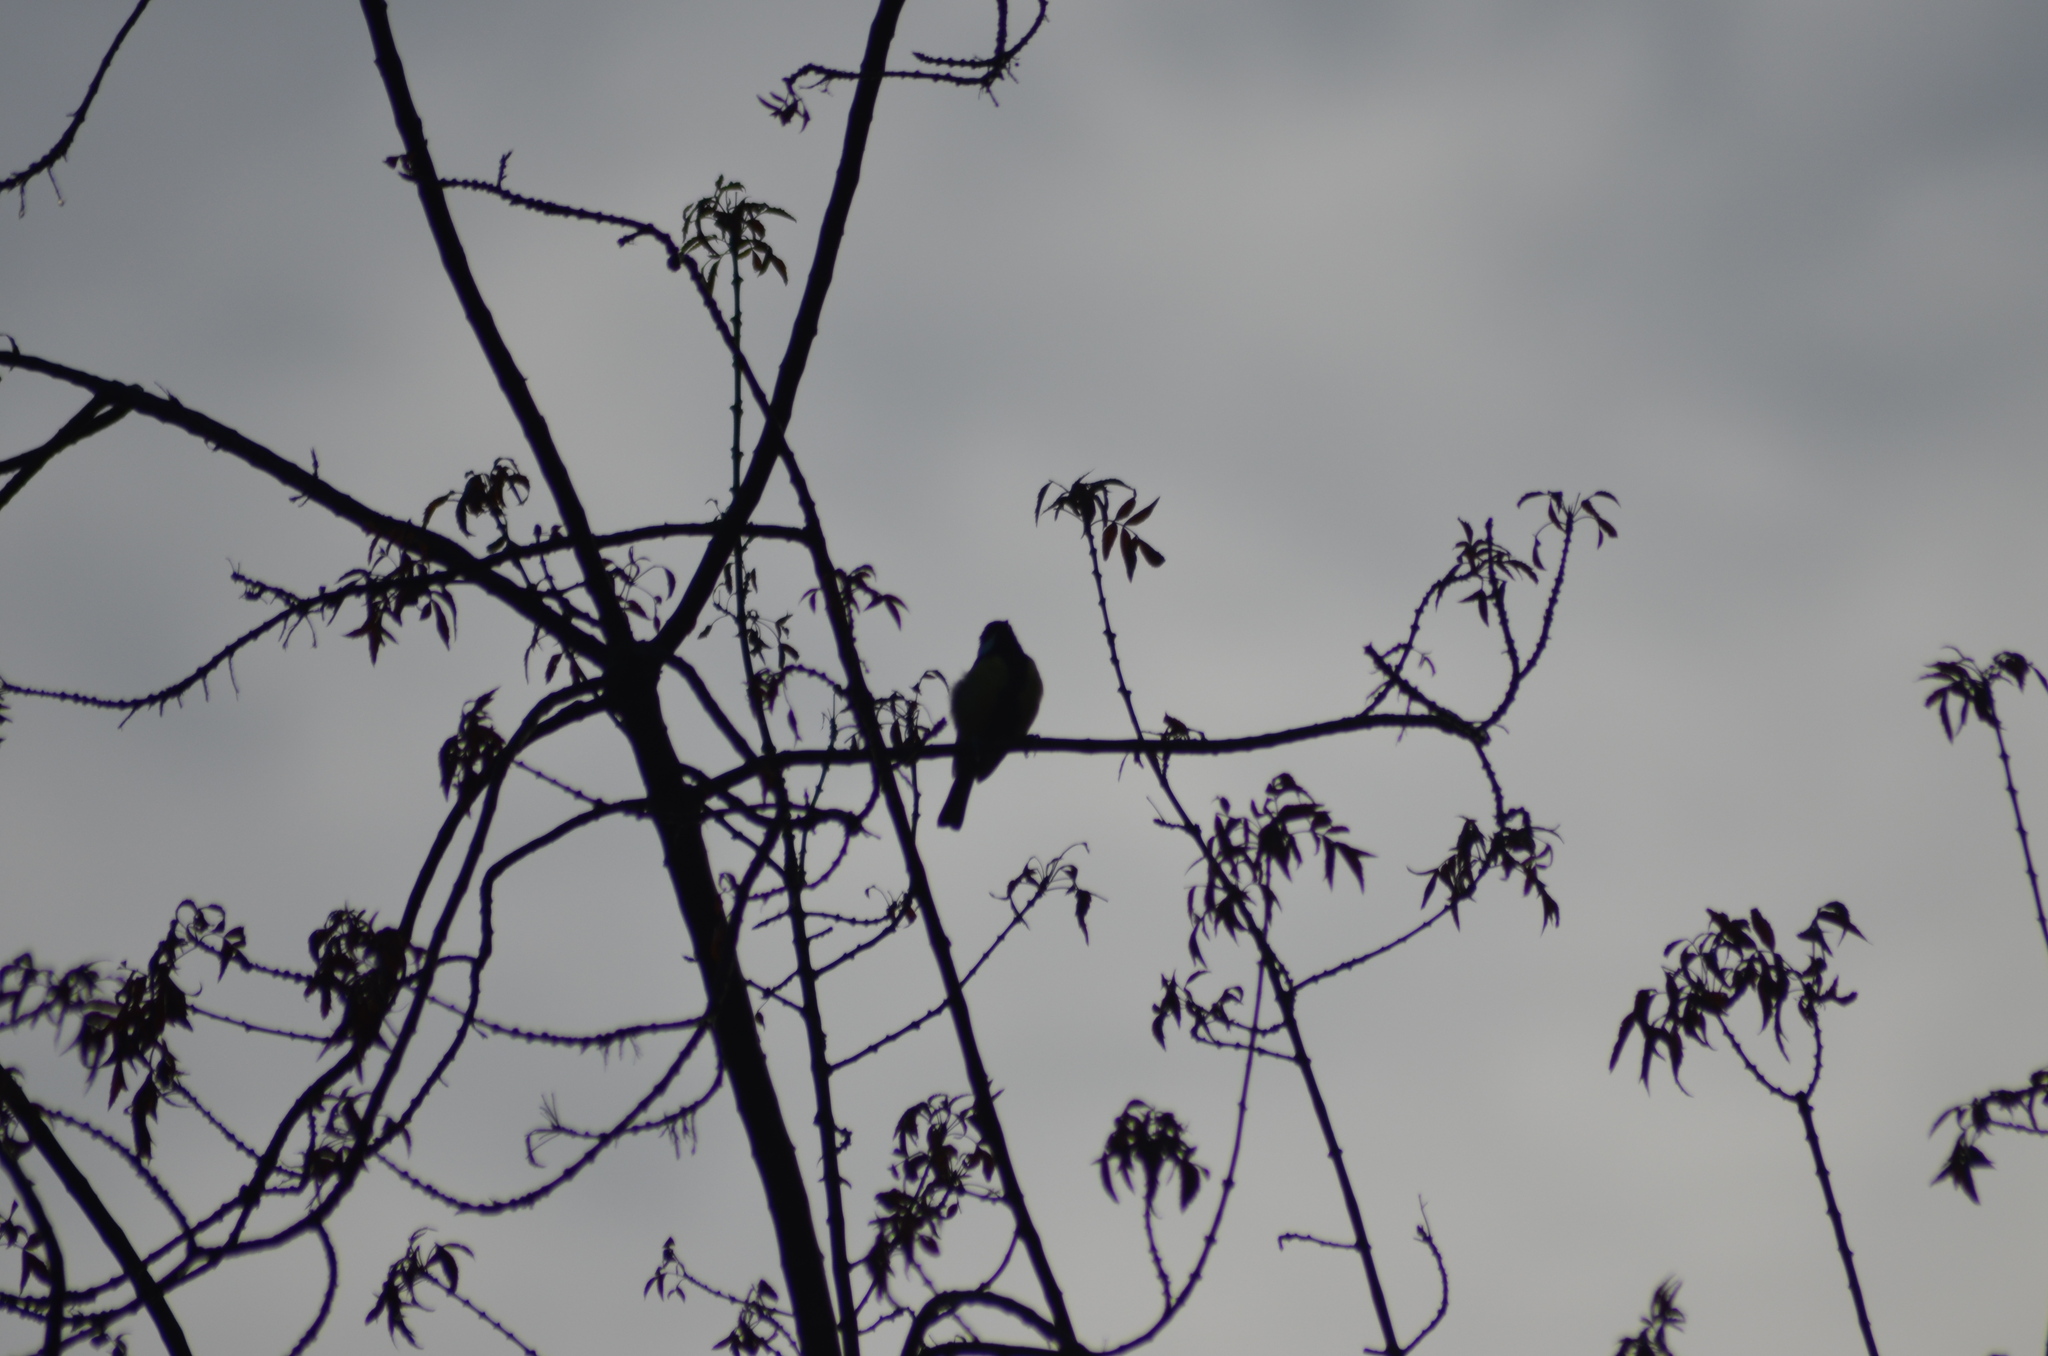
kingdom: Animalia
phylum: Chordata
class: Aves
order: Passeriformes
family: Paridae
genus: Parus
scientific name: Parus major
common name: Great tit
